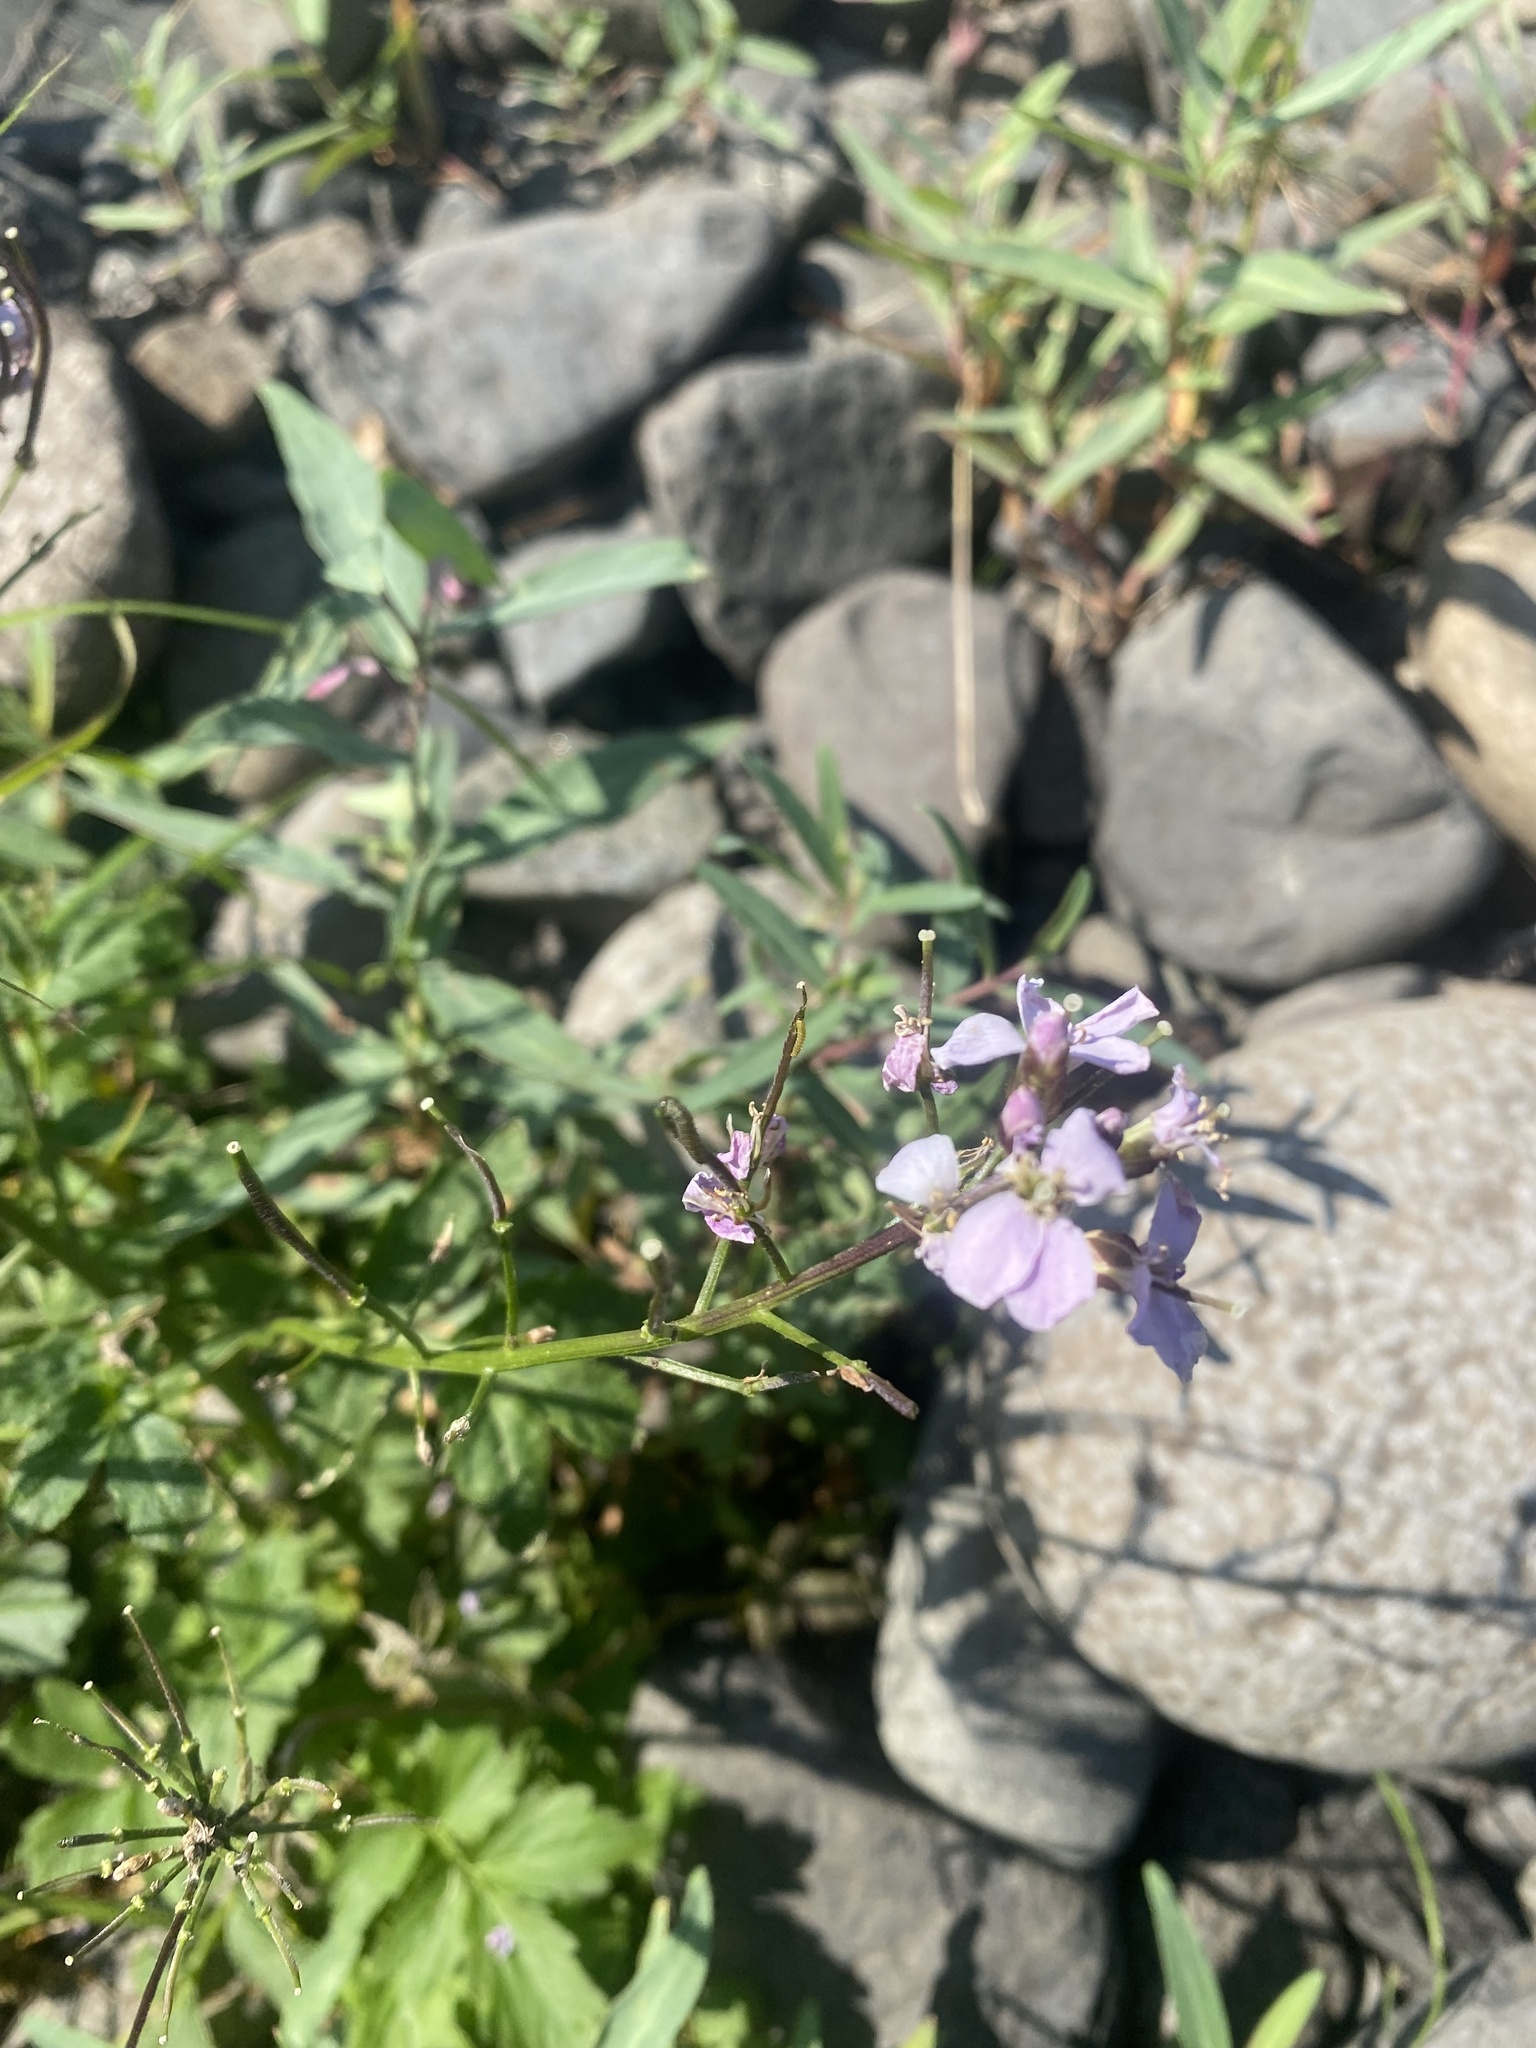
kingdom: Plantae
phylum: Tracheophyta
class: Magnoliopsida
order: Brassicales
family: Brassicaceae
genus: Cardamine
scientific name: Cardamine macrophylla
